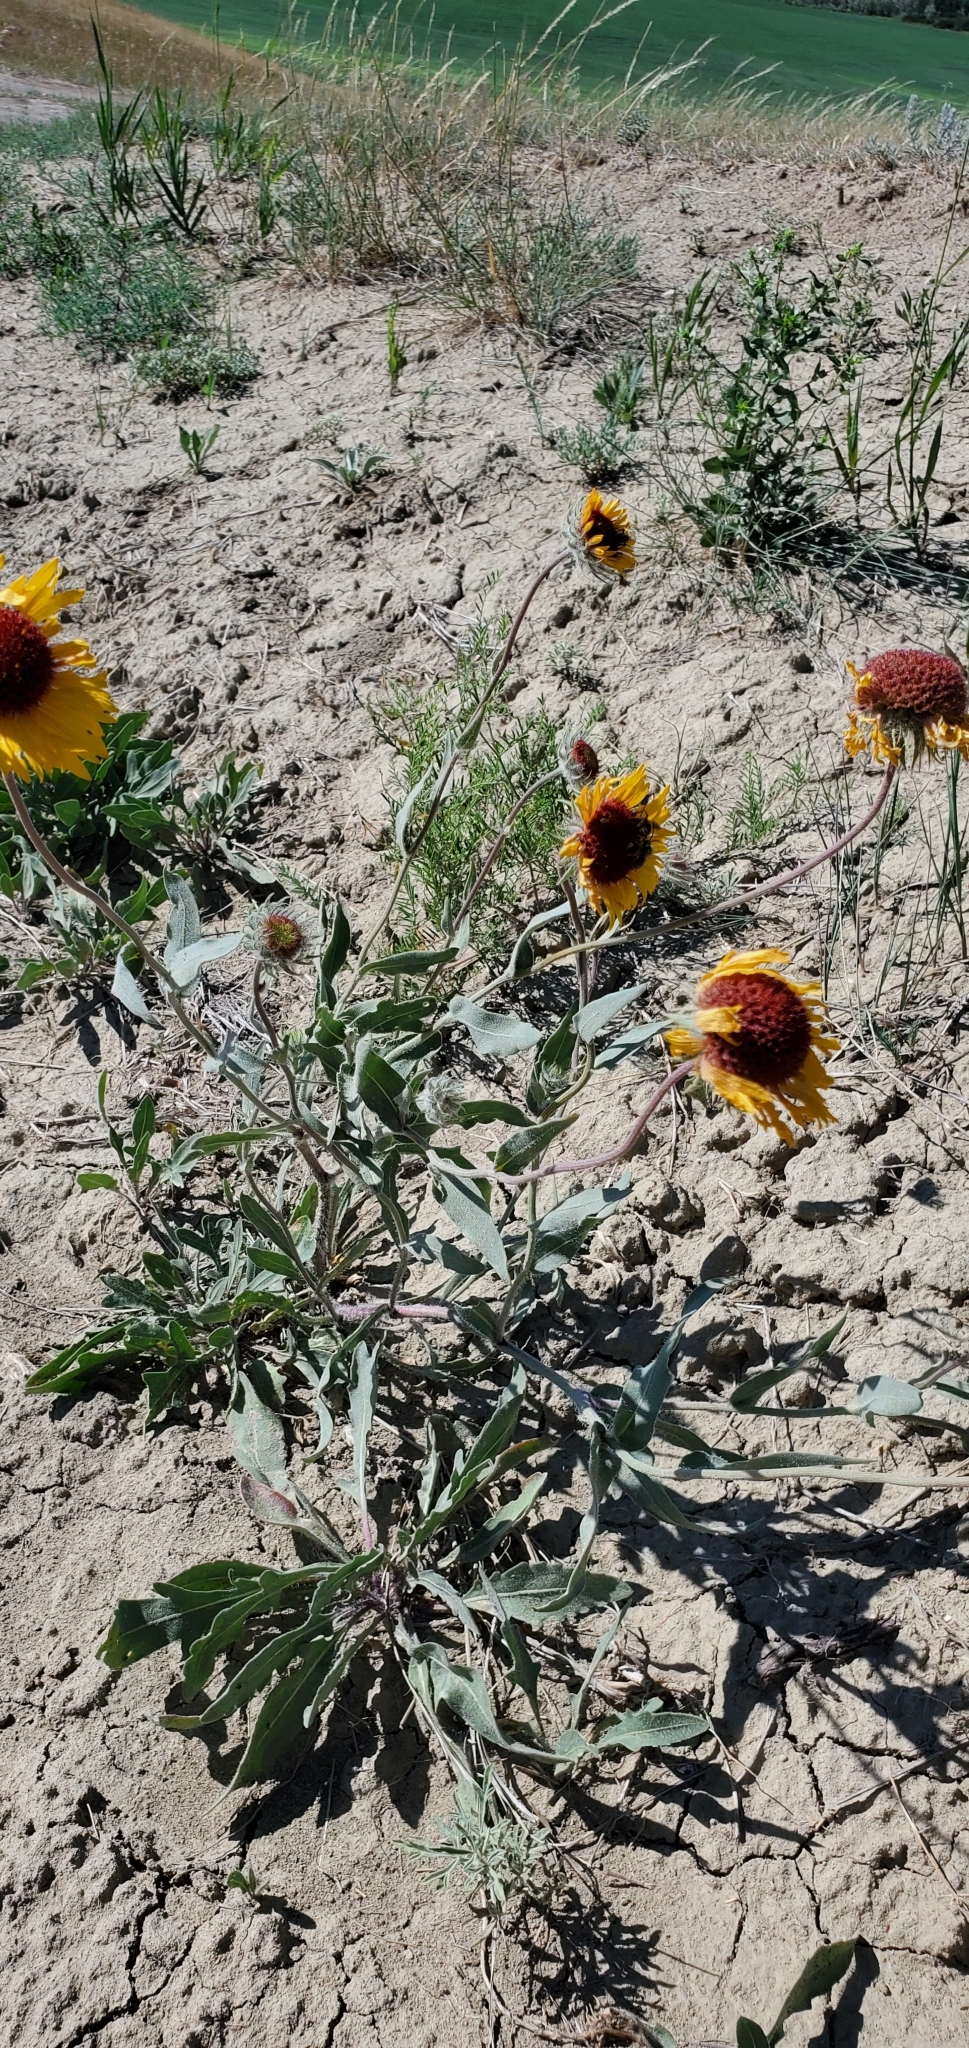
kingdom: Plantae
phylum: Tracheophyta
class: Magnoliopsida
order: Asterales
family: Asteraceae
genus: Gaillardia
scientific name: Gaillardia aristata
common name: Blanket-flower
